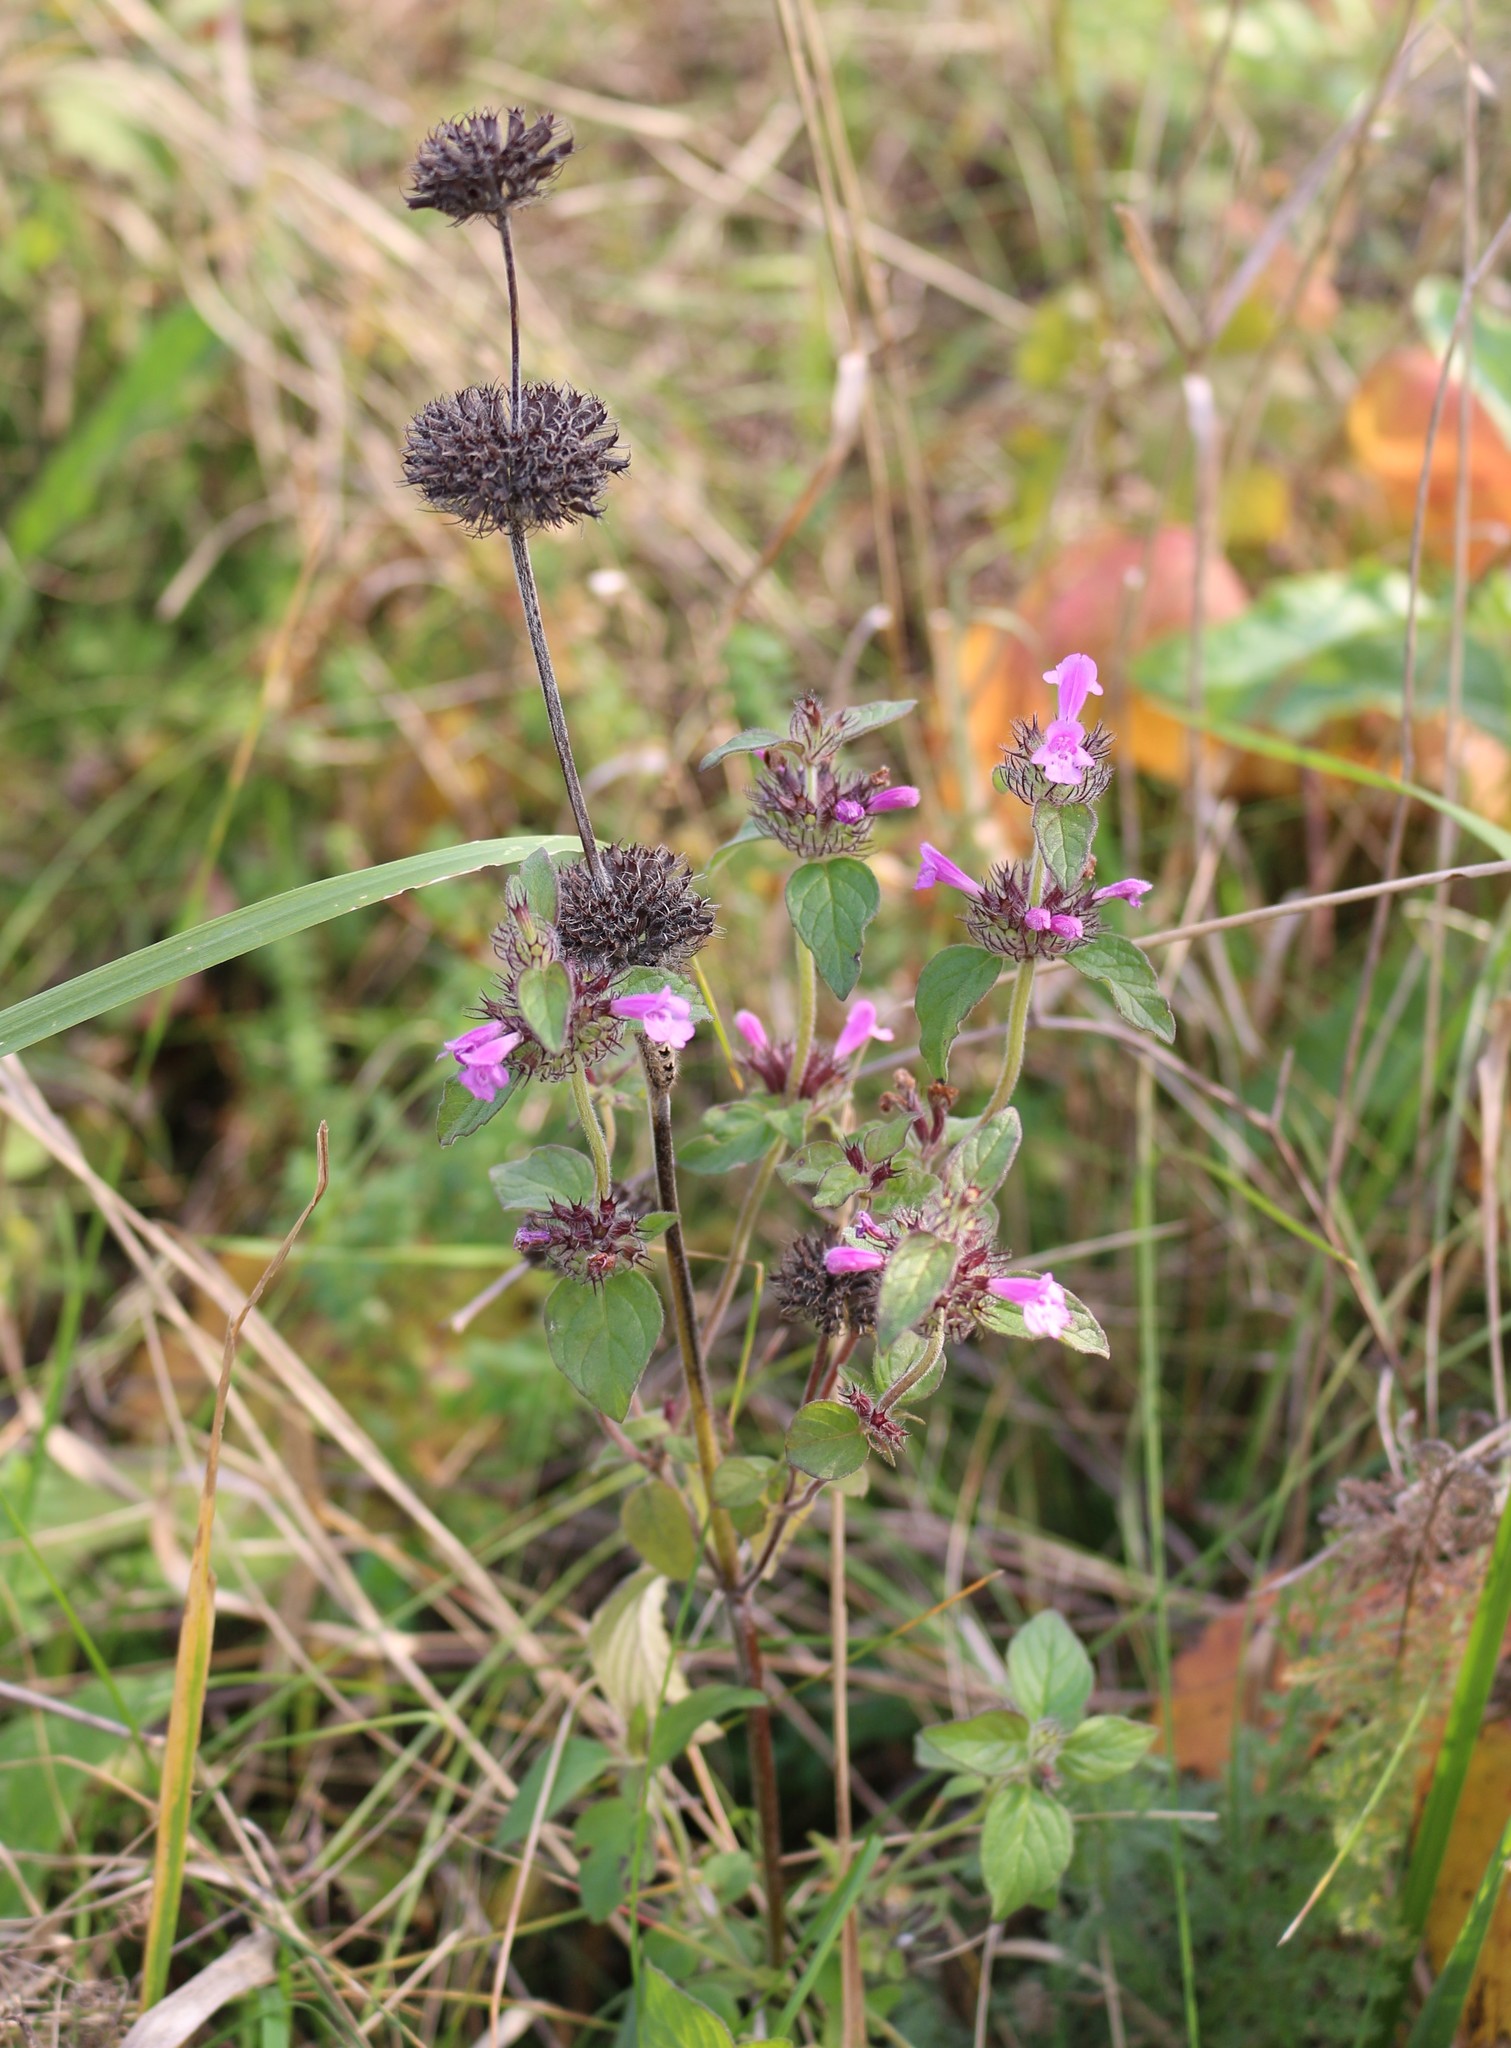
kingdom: Plantae
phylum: Tracheophyta
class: Magnoliopsida
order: Lamiales
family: Lamiaceae
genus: Clinopodium
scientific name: Clinopodium caucasicum
